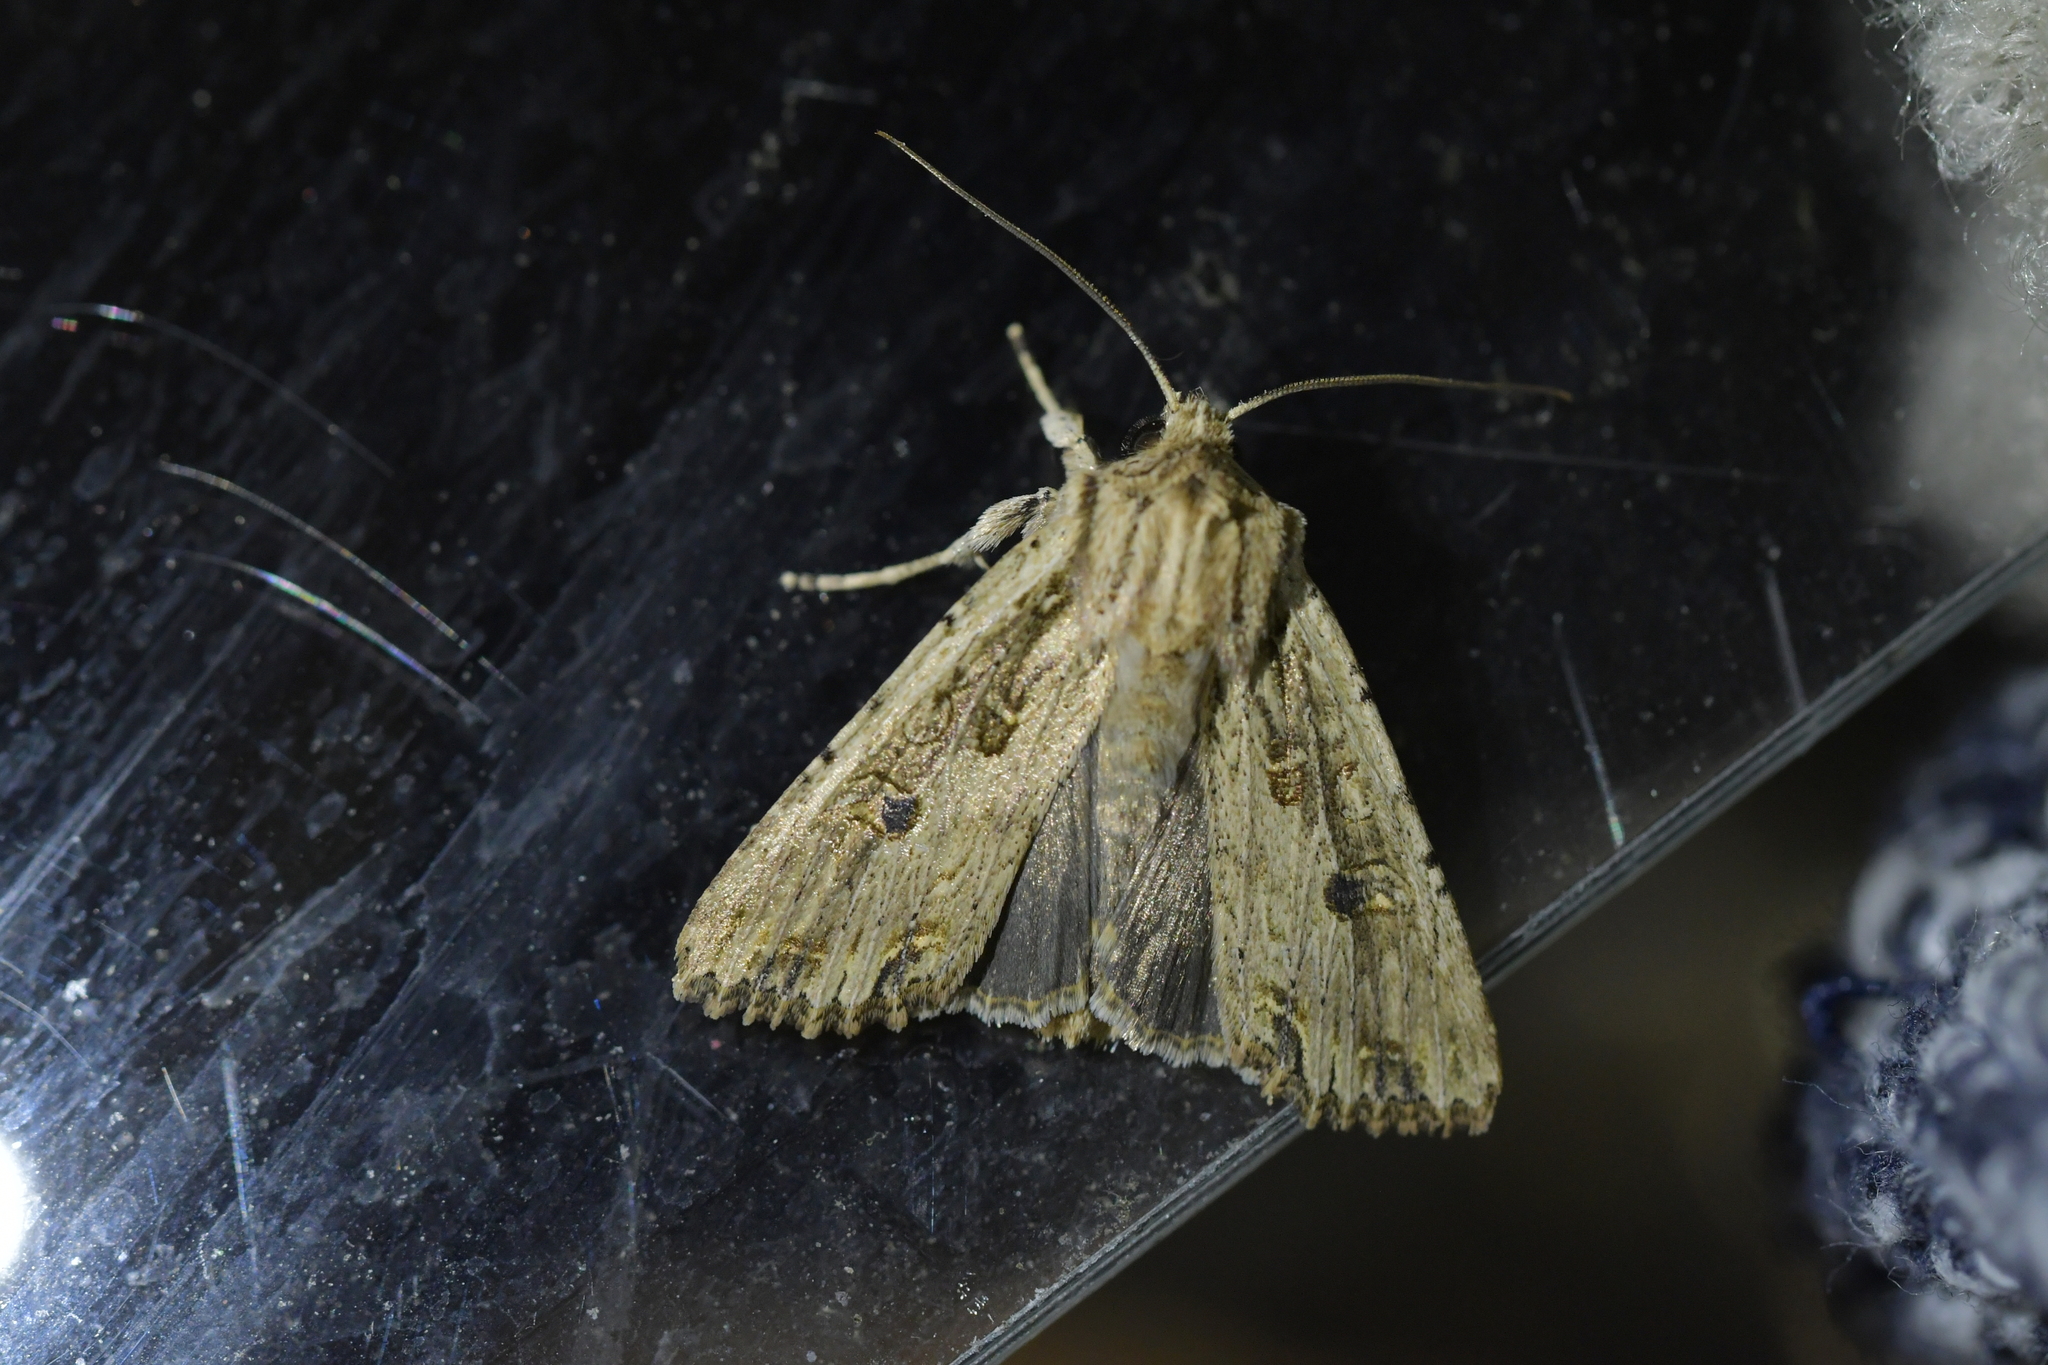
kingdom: Animalia
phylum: Arthropoda
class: Insecta
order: Lepidoptera
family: Noctuidae
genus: Ichneutica
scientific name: Ichneutica lignana
